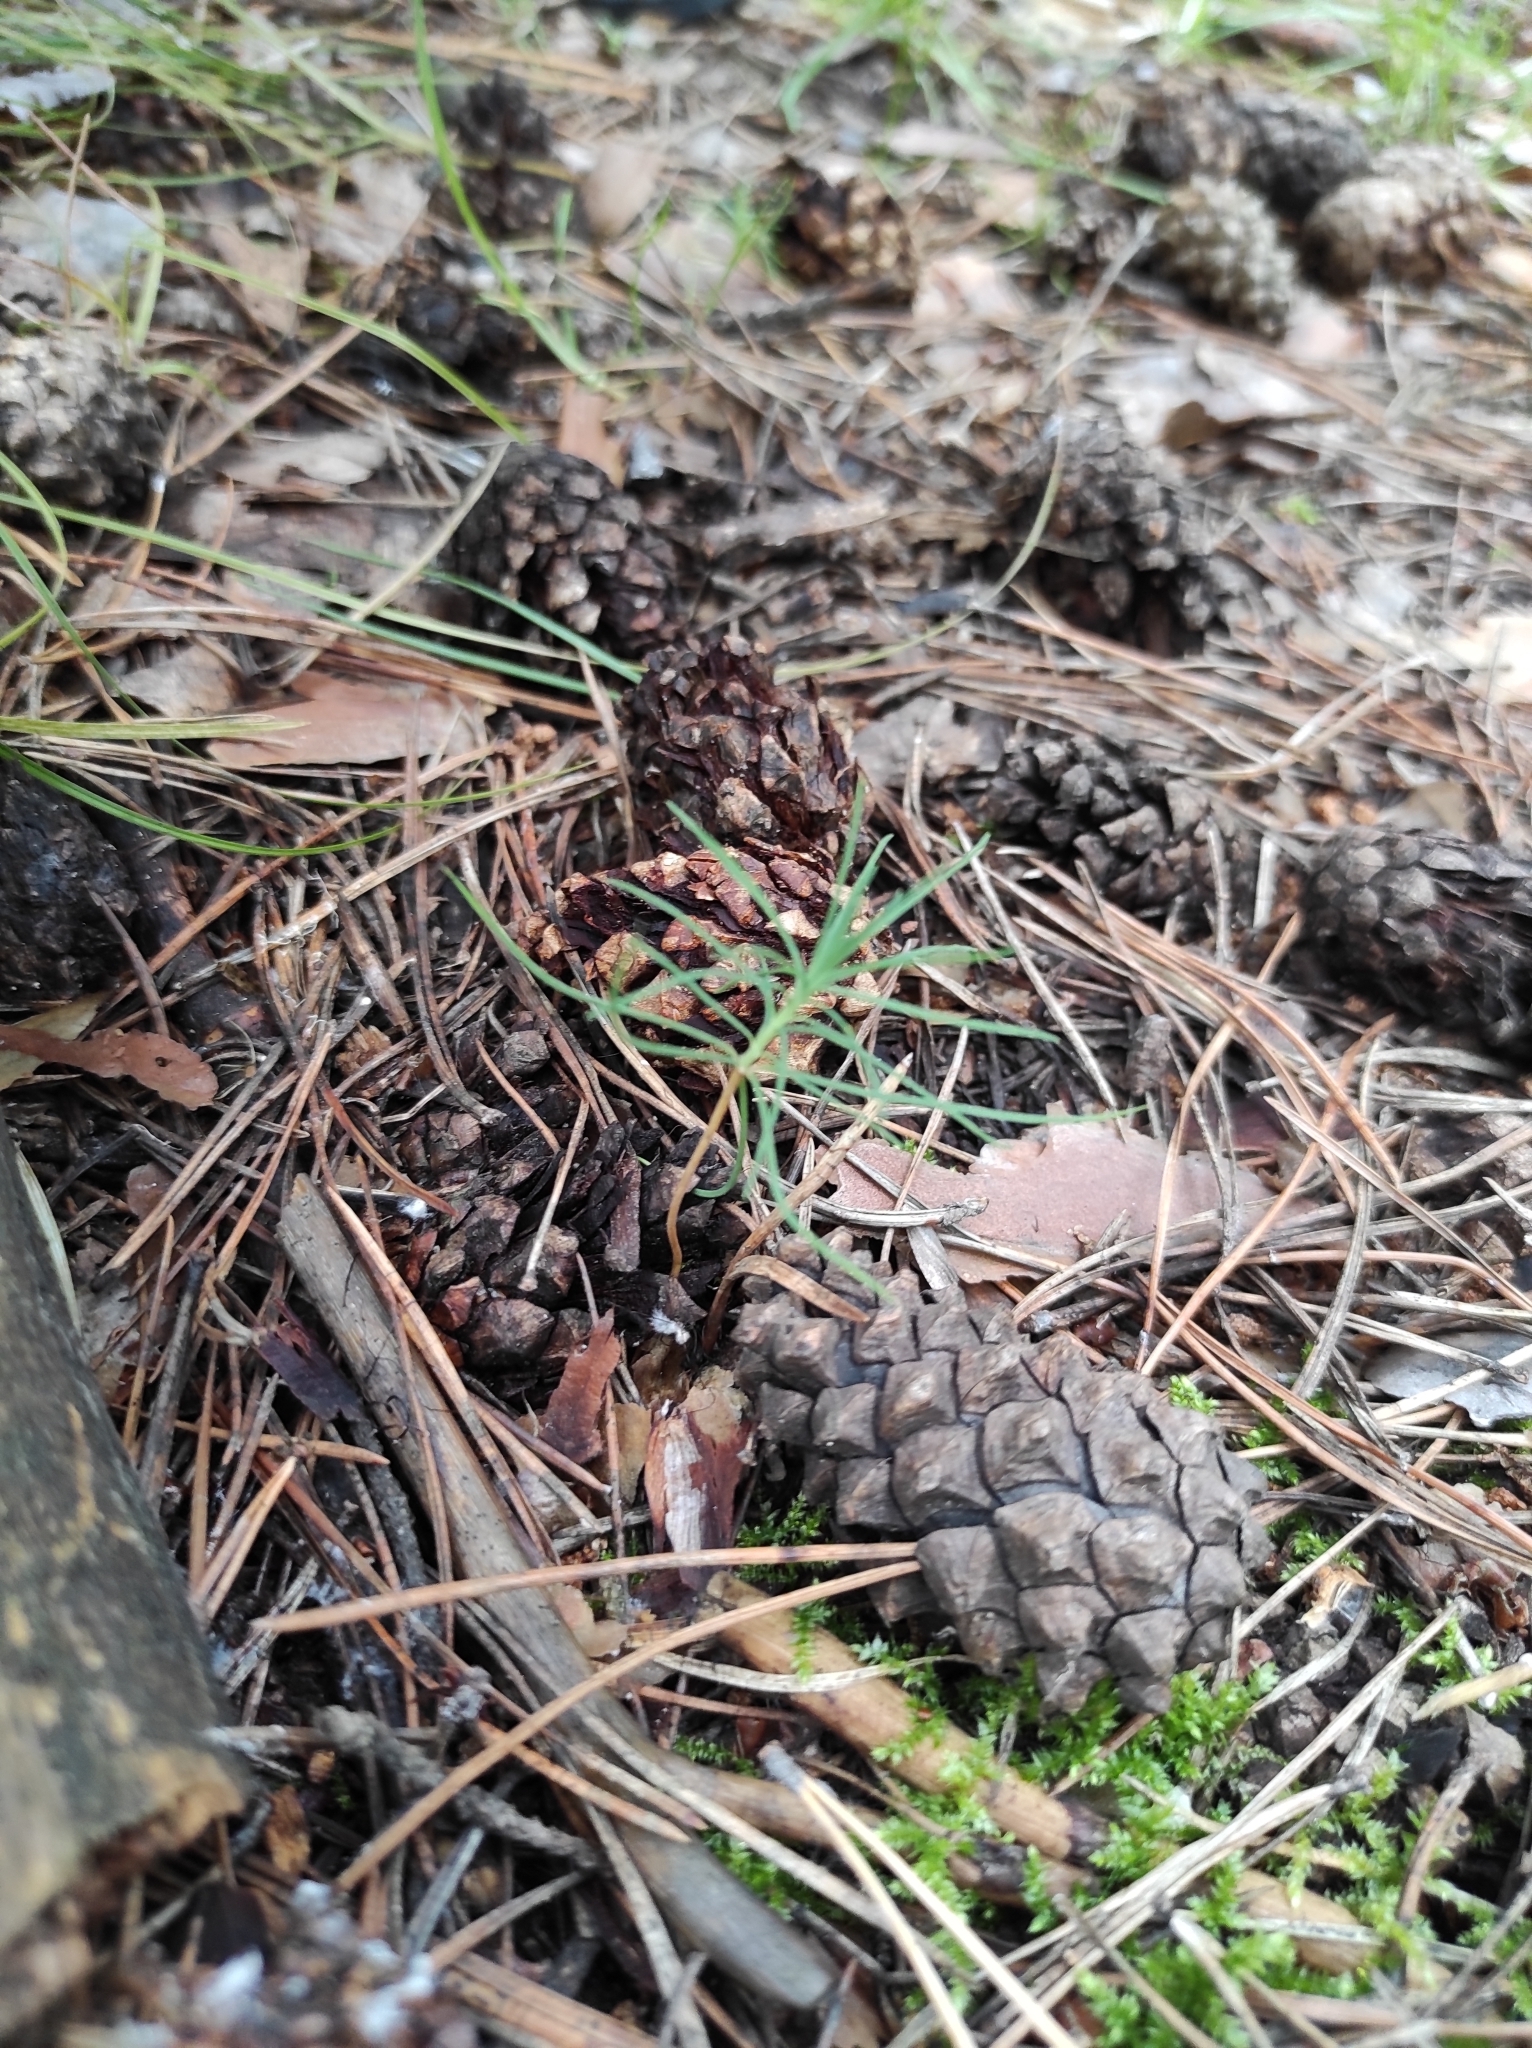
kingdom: Plantae
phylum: Tracheophyta
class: Pinopsida
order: Pinales
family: Pinaceae
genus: Pinus
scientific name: Pinus sylvestris
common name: Scots pine
